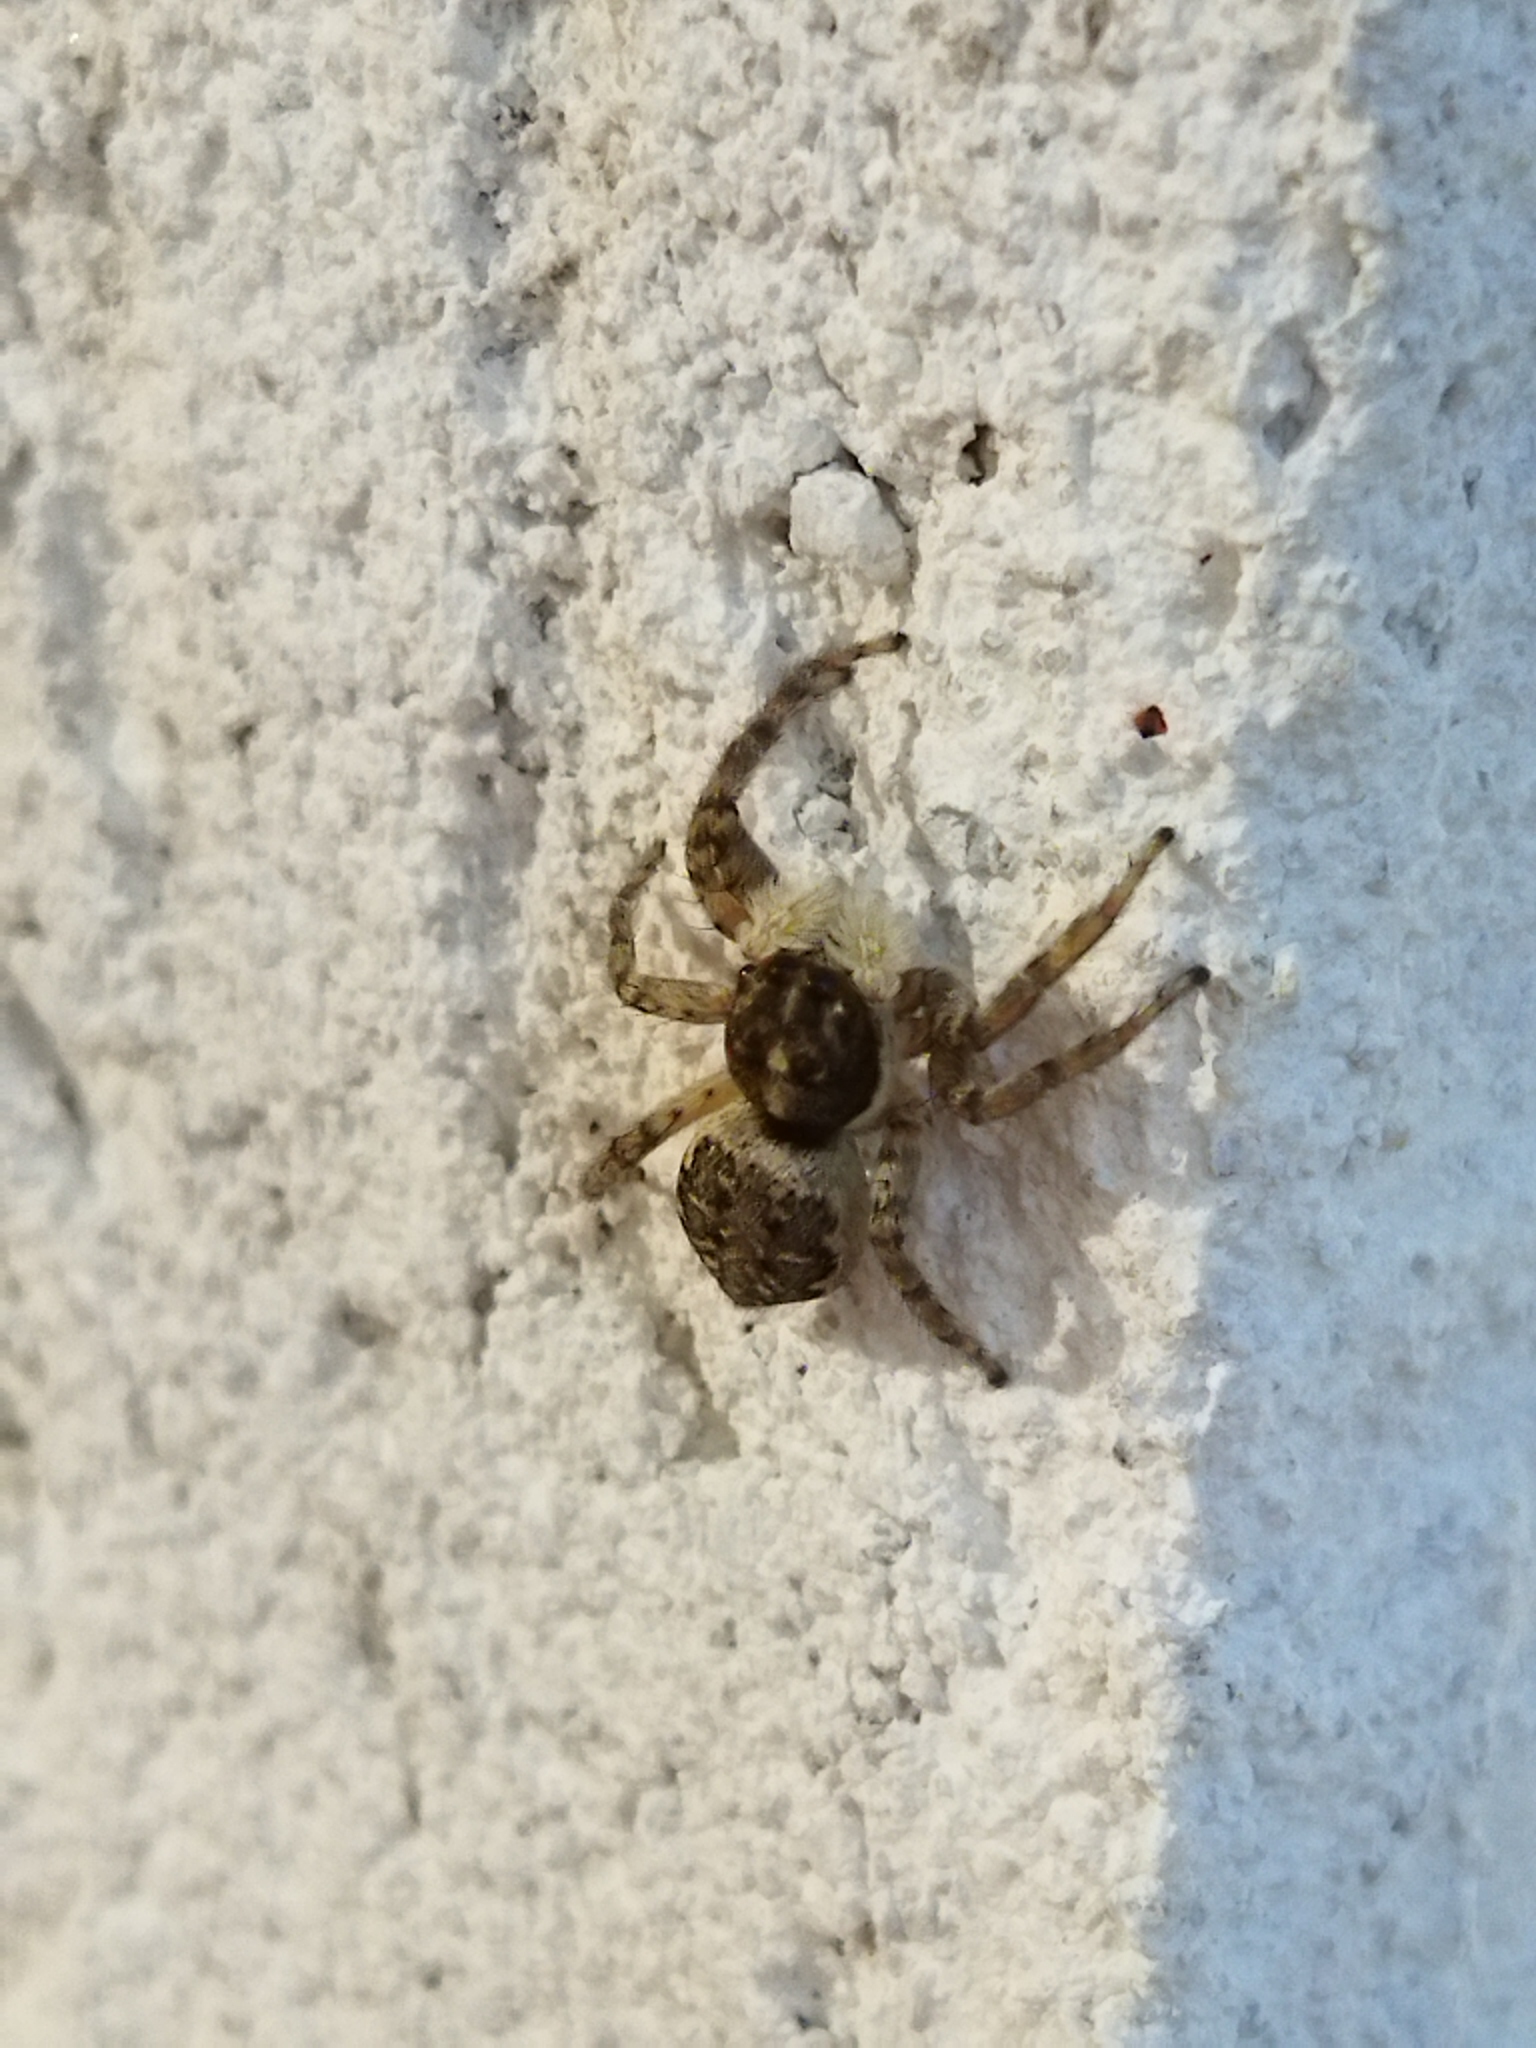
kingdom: Animalia
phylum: Arthropoda
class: Arachnida
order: Araneae
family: Salticidae
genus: Menemerus
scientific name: Menemerus semilimbatus
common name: Jumping spider
